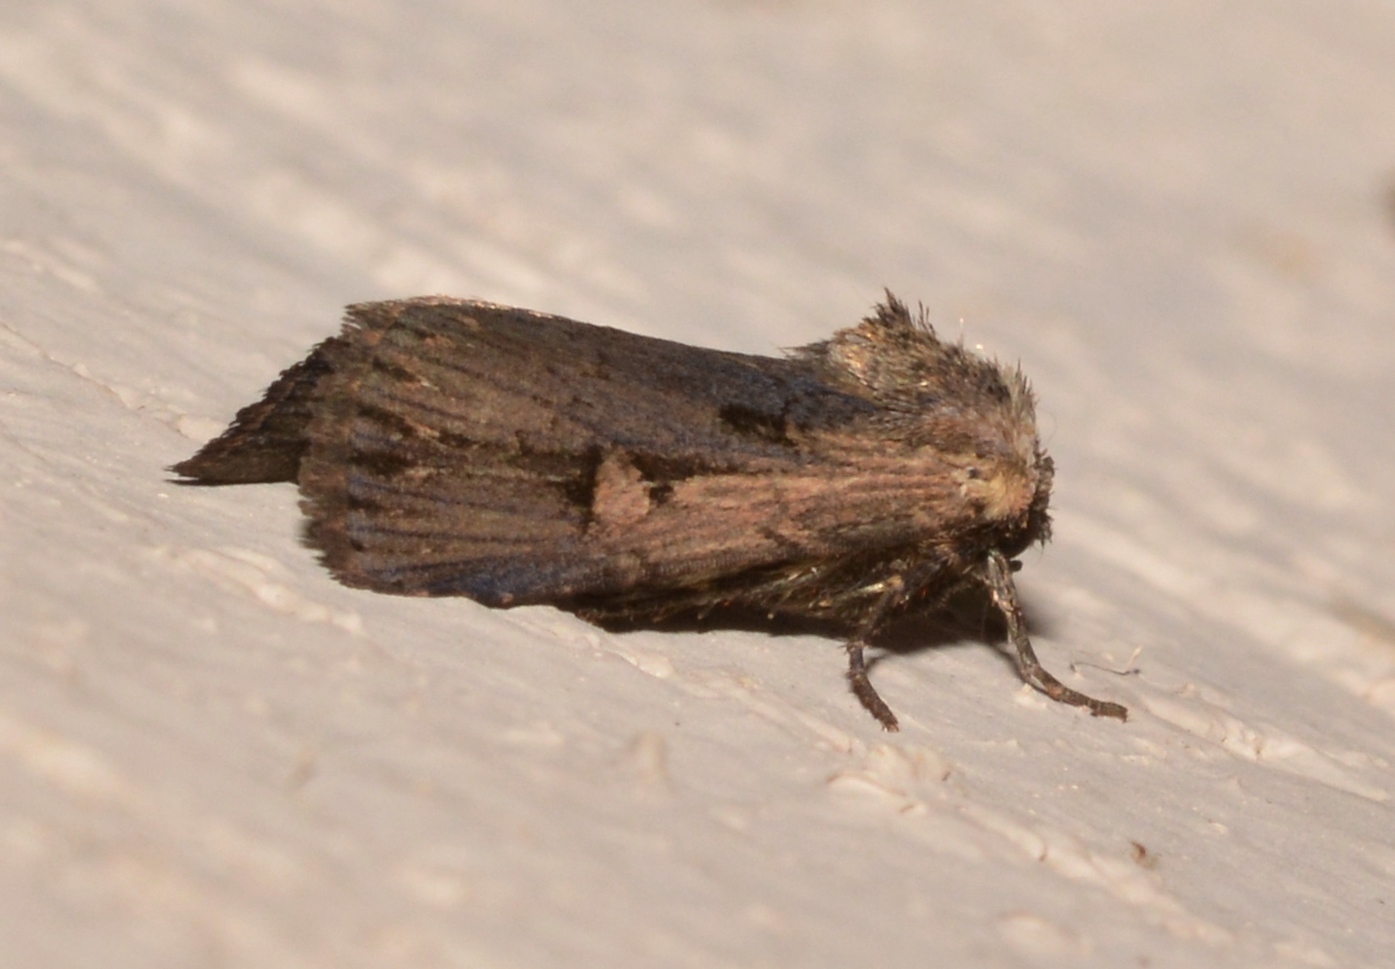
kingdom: Animalia
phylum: Arthropoda
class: Insecta
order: Lepidoptera
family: Noctuidae
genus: Dichagyris
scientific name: Dichagyris acclivis
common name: Inclined dart
